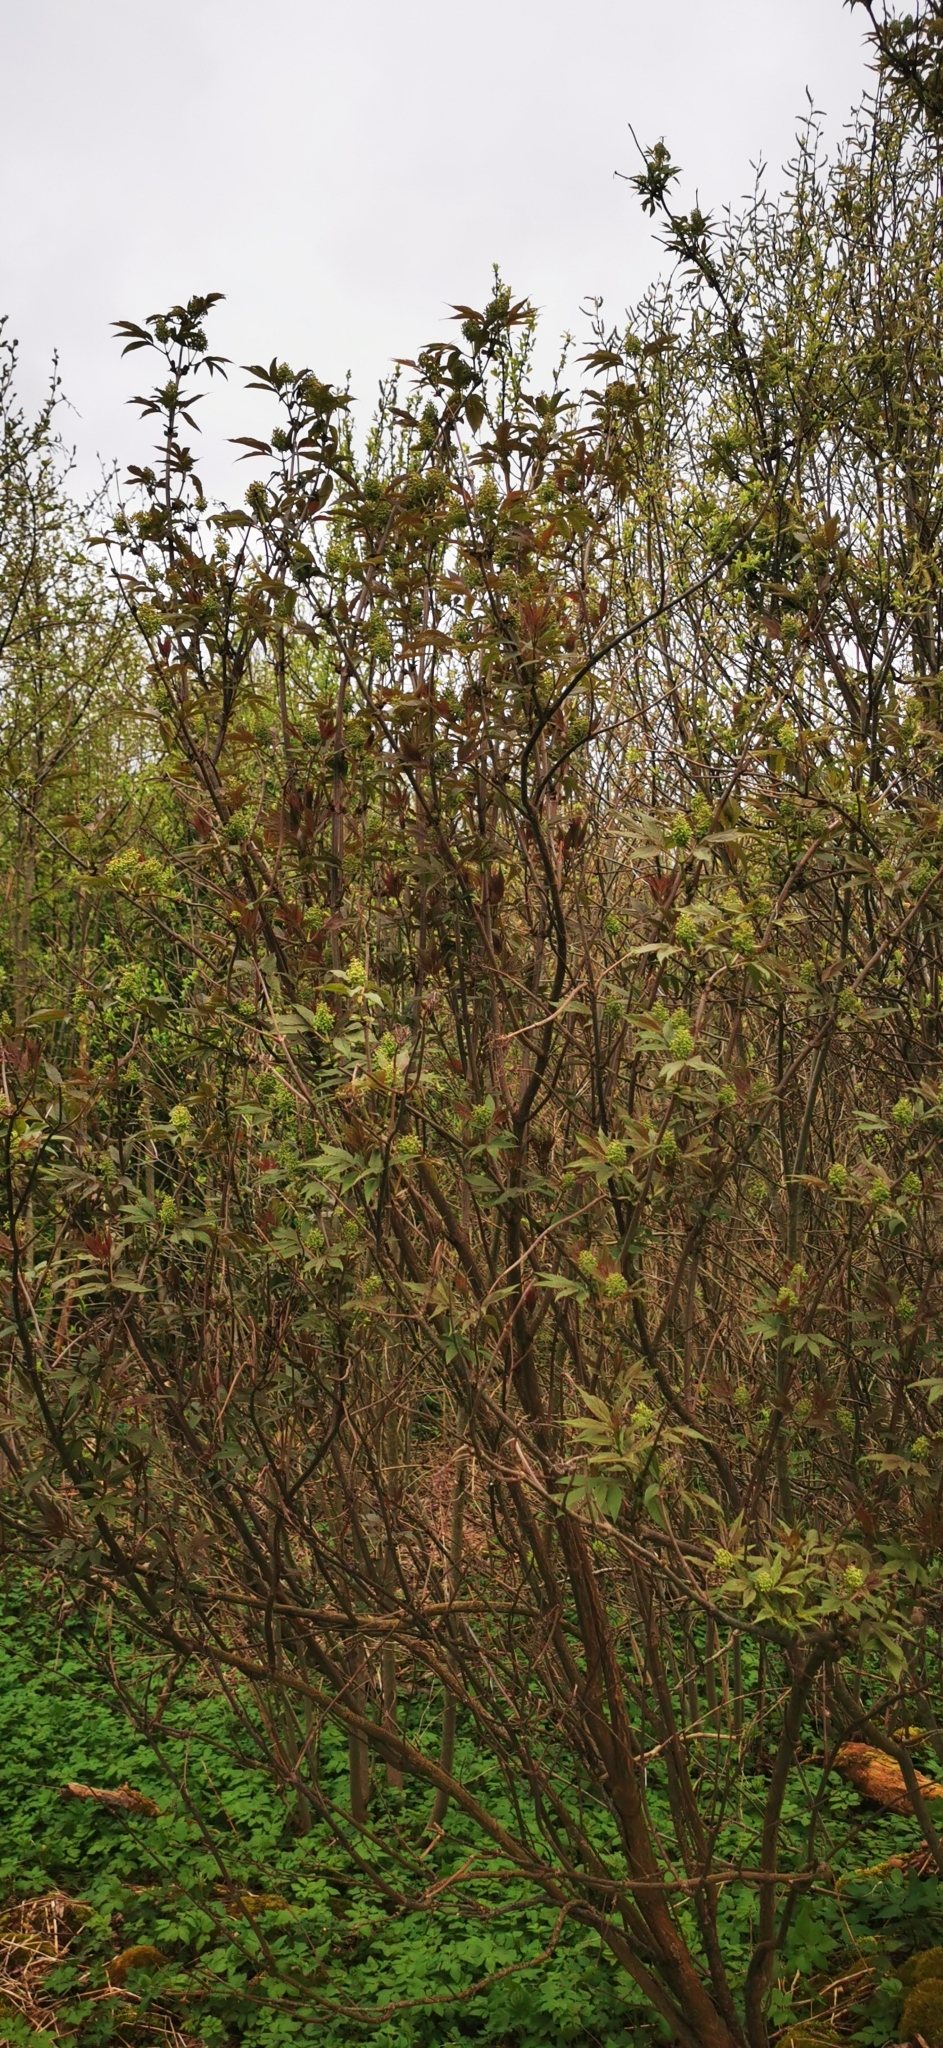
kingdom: Plantae
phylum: Tracheophyta
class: Magnoliopsida
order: Dipsacales
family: Viburnaceae
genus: Sambucus
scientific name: Sambucus racemosa
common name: Red-berried elder
